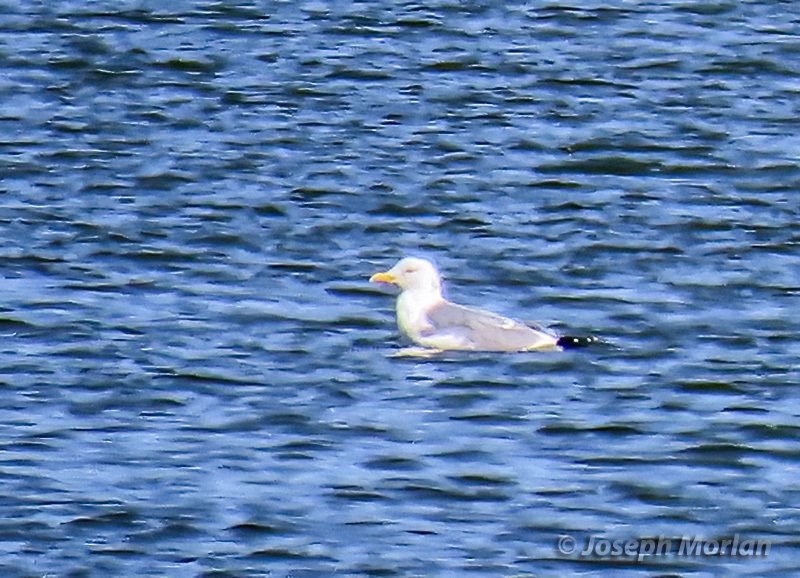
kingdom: Animalia
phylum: Chordata
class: Aves
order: Charadriiformes
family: Laridae
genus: Larus
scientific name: Larus argentatus
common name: Herring gull
